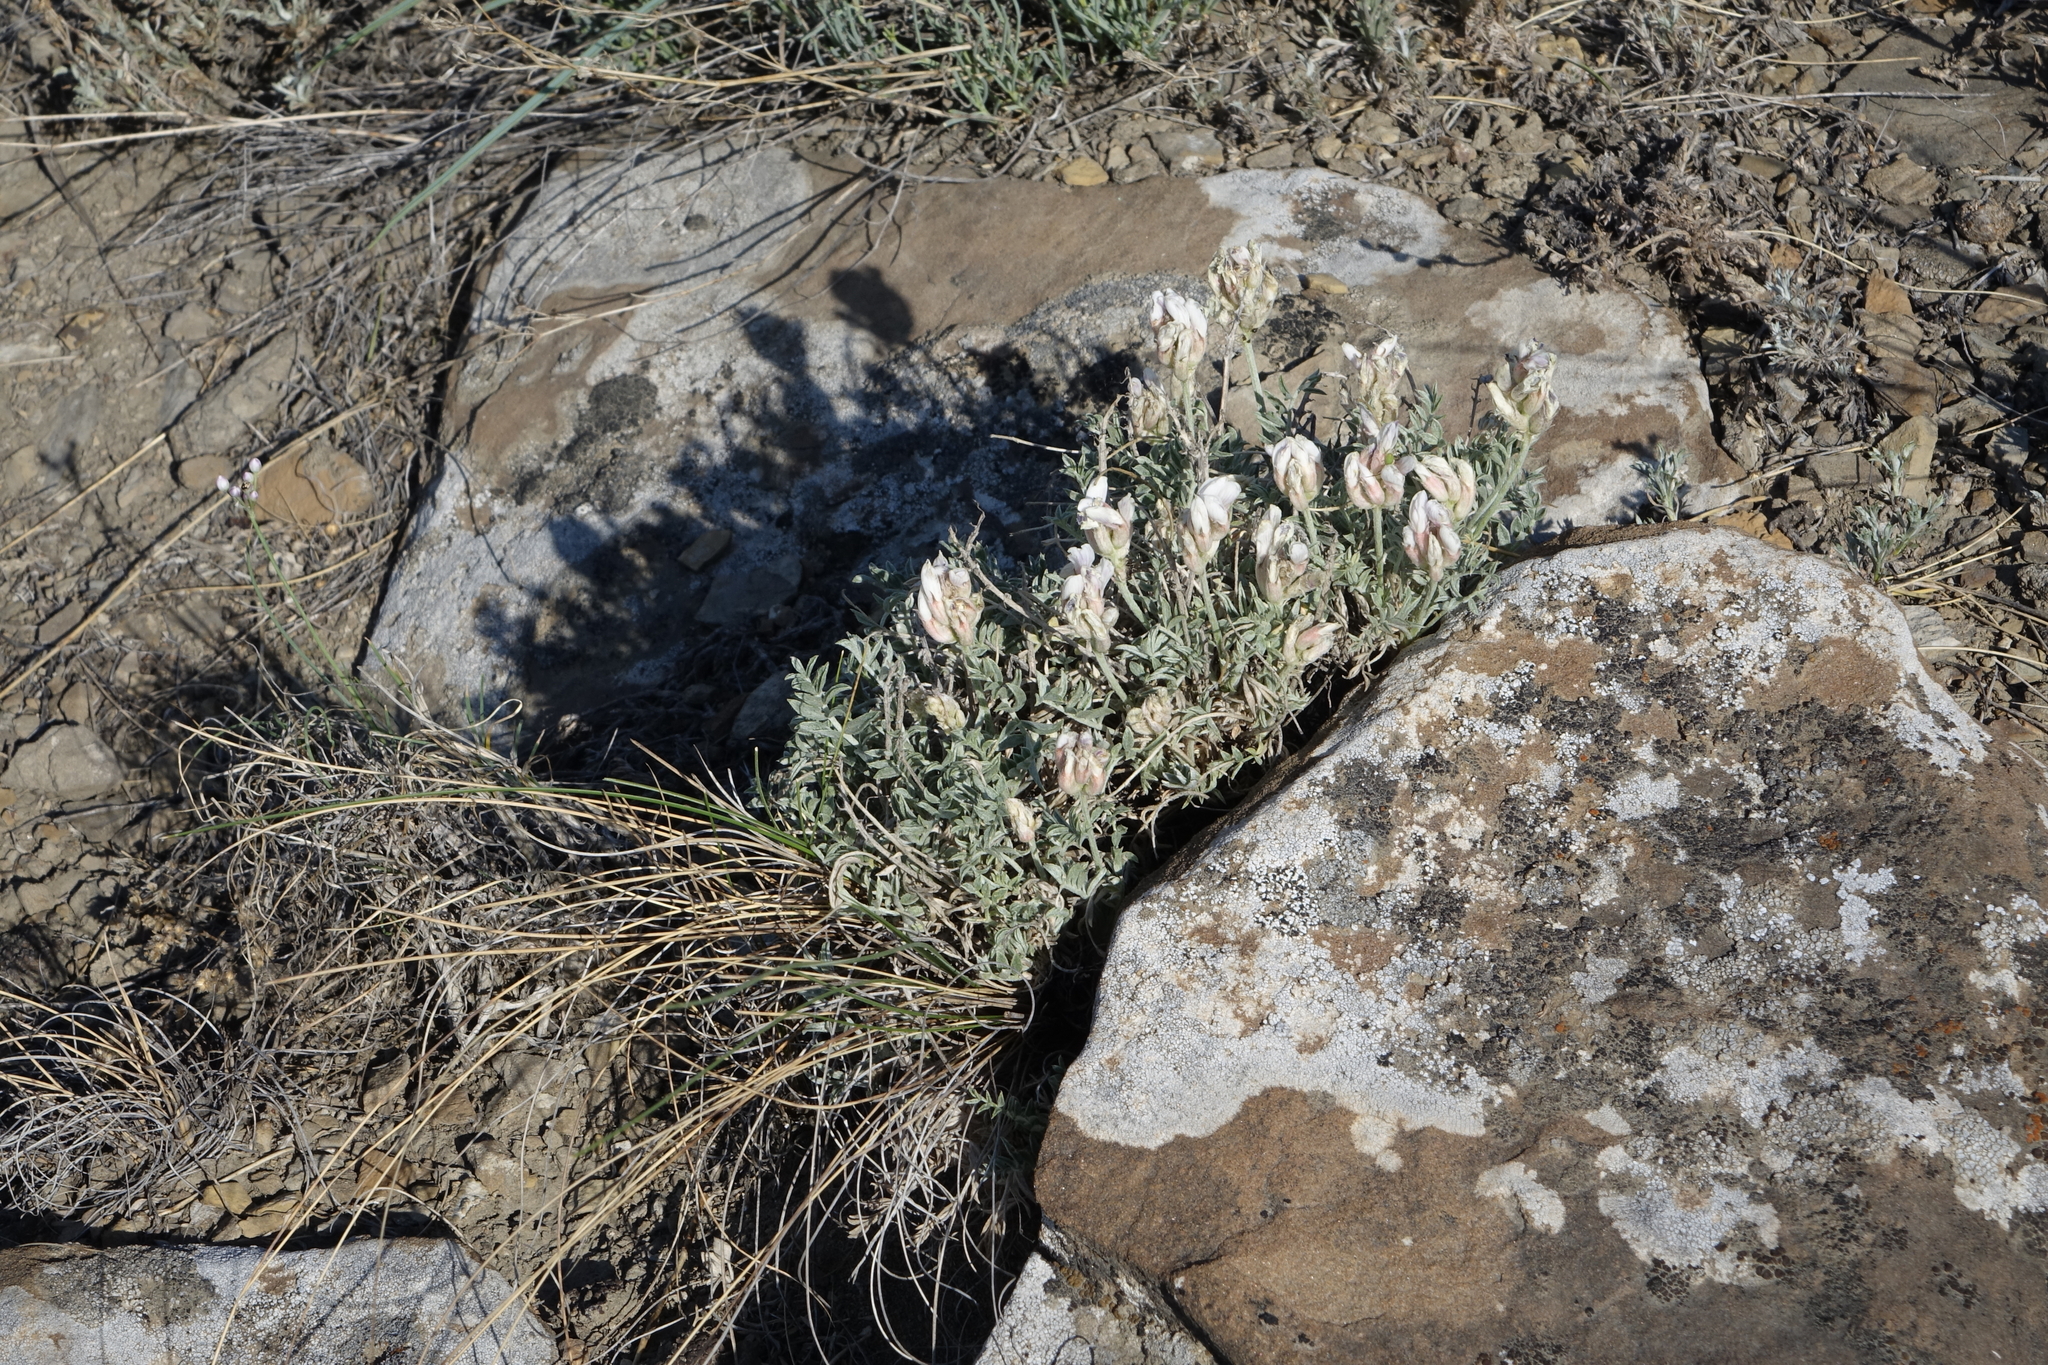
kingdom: Plantae
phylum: Tracheophyta
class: Magnoliopsida
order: Fabales
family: Fabaceae
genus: Astragalus
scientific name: Astragalus dilutus
